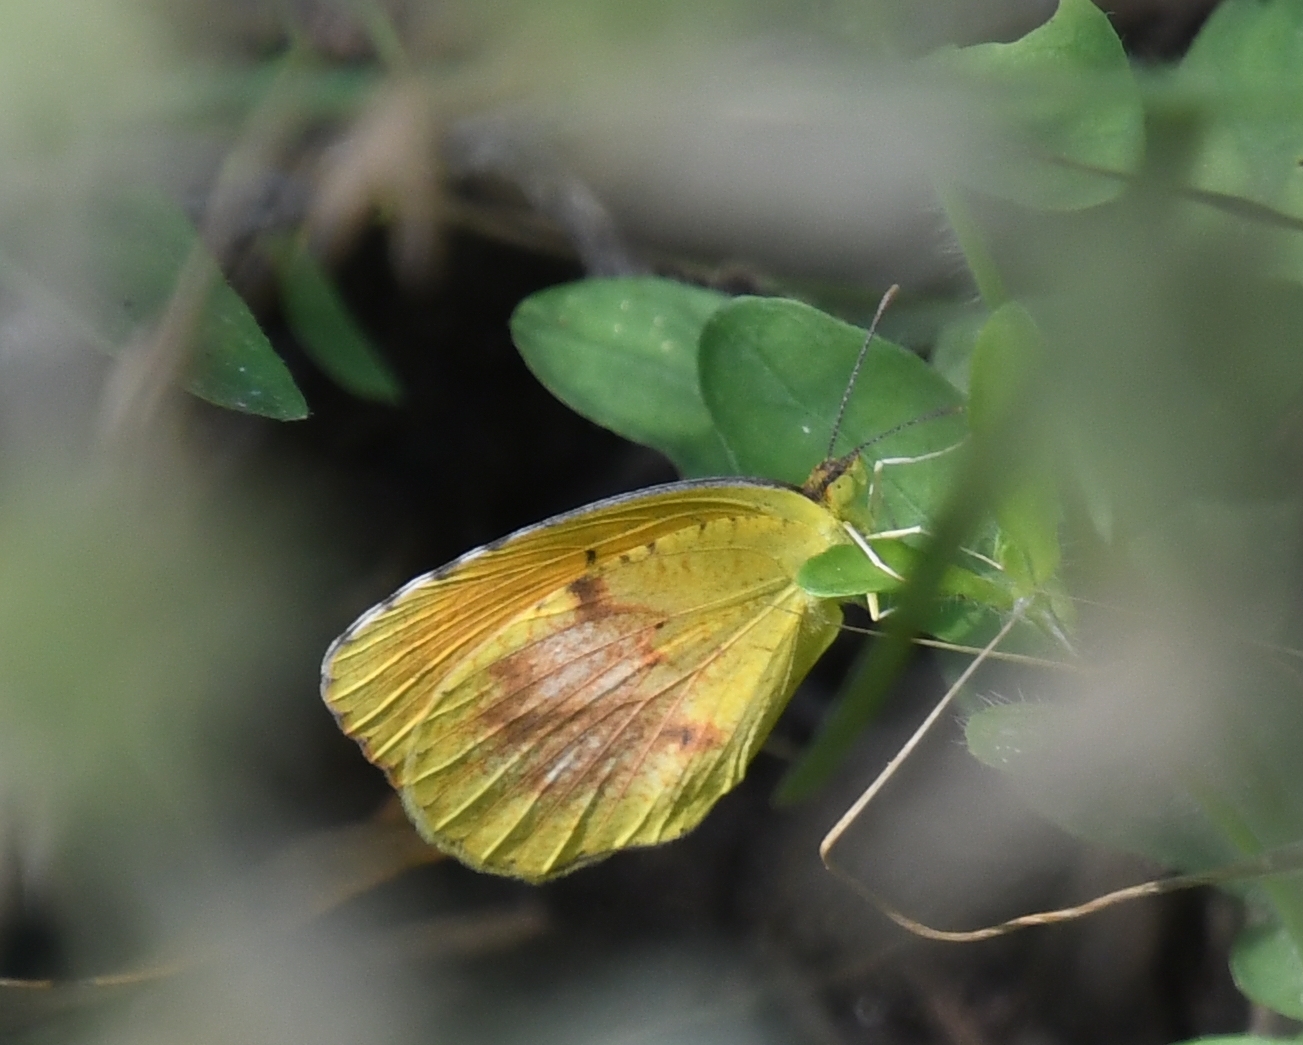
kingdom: Animalia
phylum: Arthropoda
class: Insecta
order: Lepidoptera
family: Pieridae
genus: Abaeis
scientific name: Abaeis nicippe
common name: Sleepy orange
